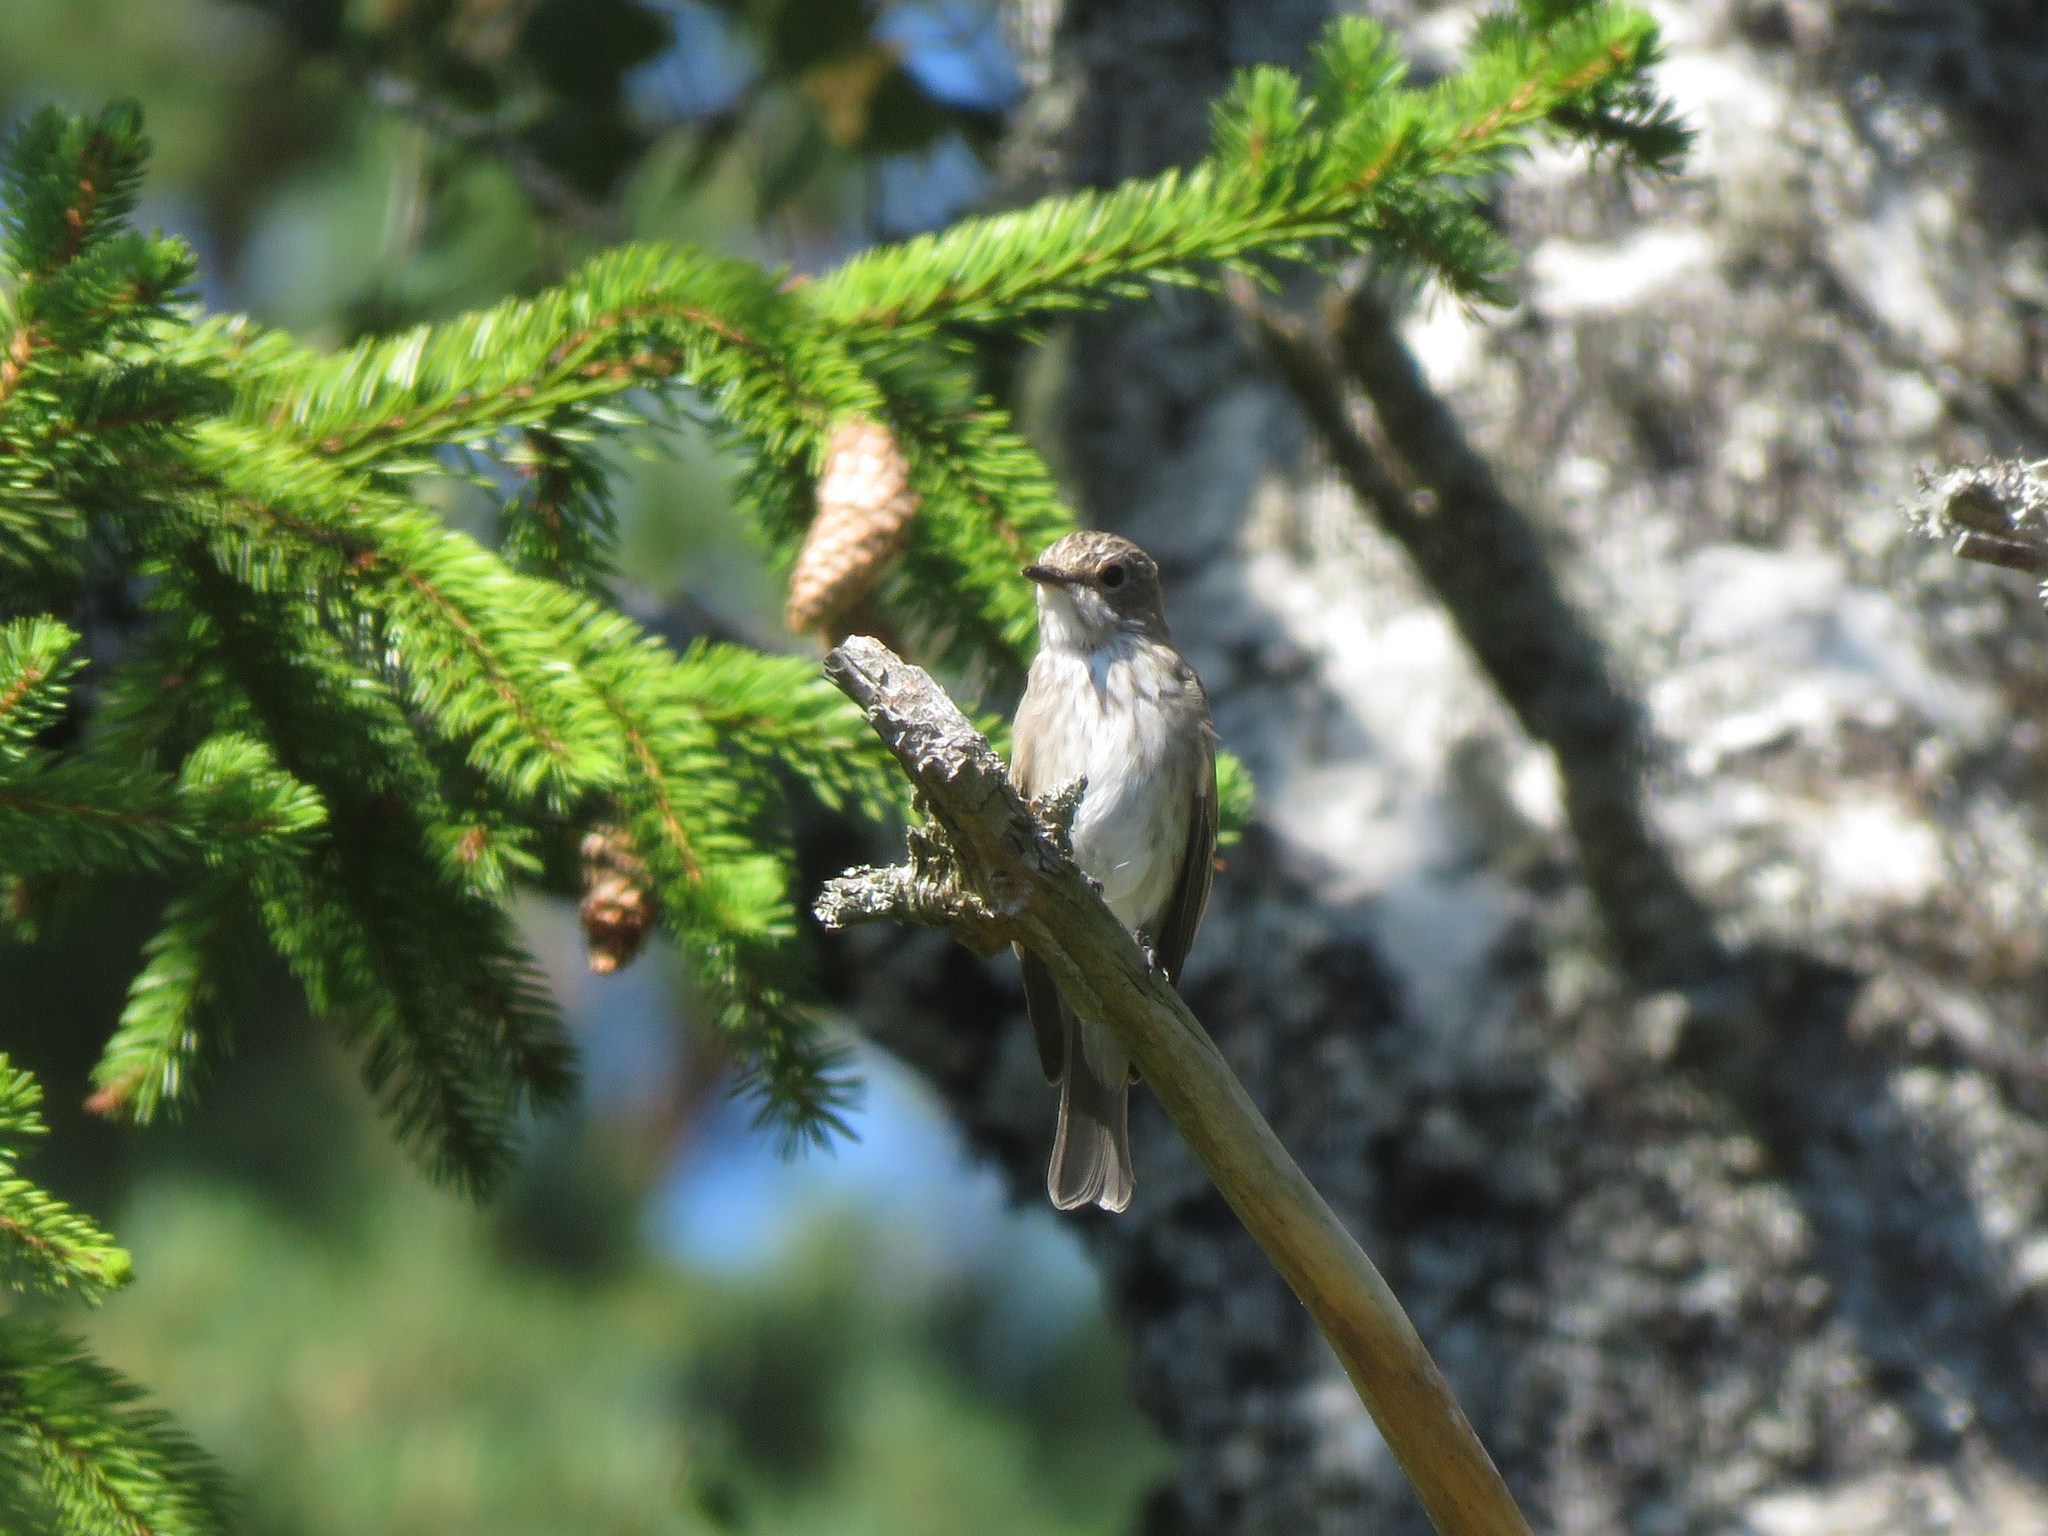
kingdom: Animalia
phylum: Chordata
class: Aves
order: Passeriformes
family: Muscicapidae
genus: Muscicapa
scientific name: Muscicapa striata
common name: Spotted flycatcher
